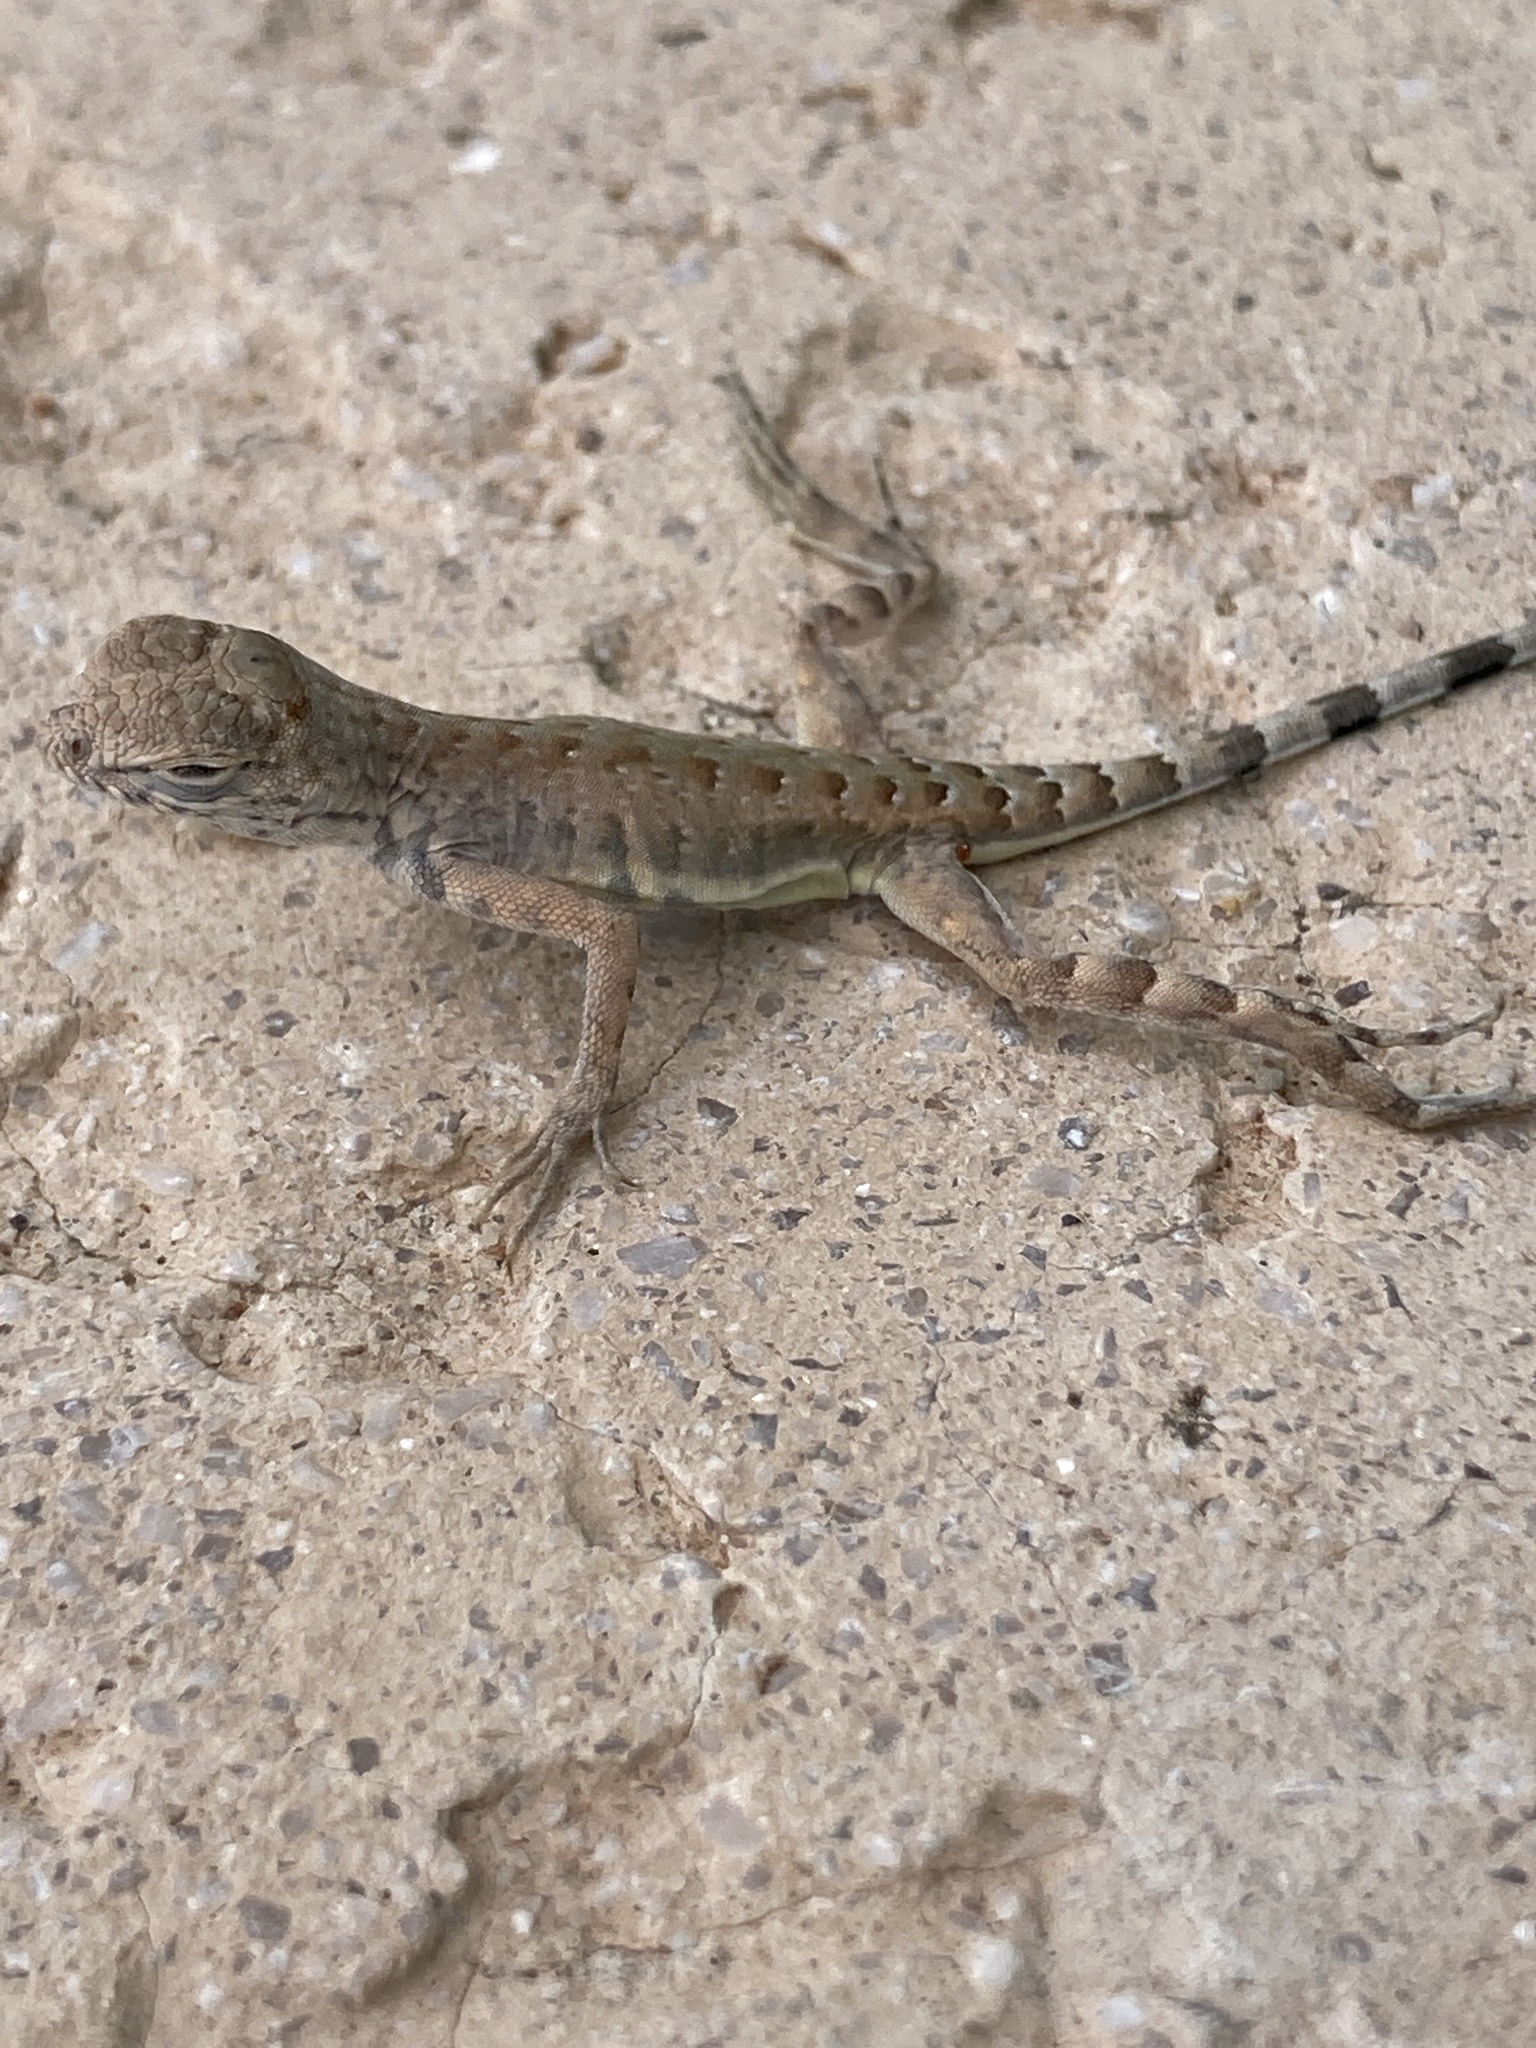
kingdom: Animalia
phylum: Chordata
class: Squamata
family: Phrynosomatidae
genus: Callisaurus
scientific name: Callisaurus draconoides
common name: Zebra-tailed lizard
